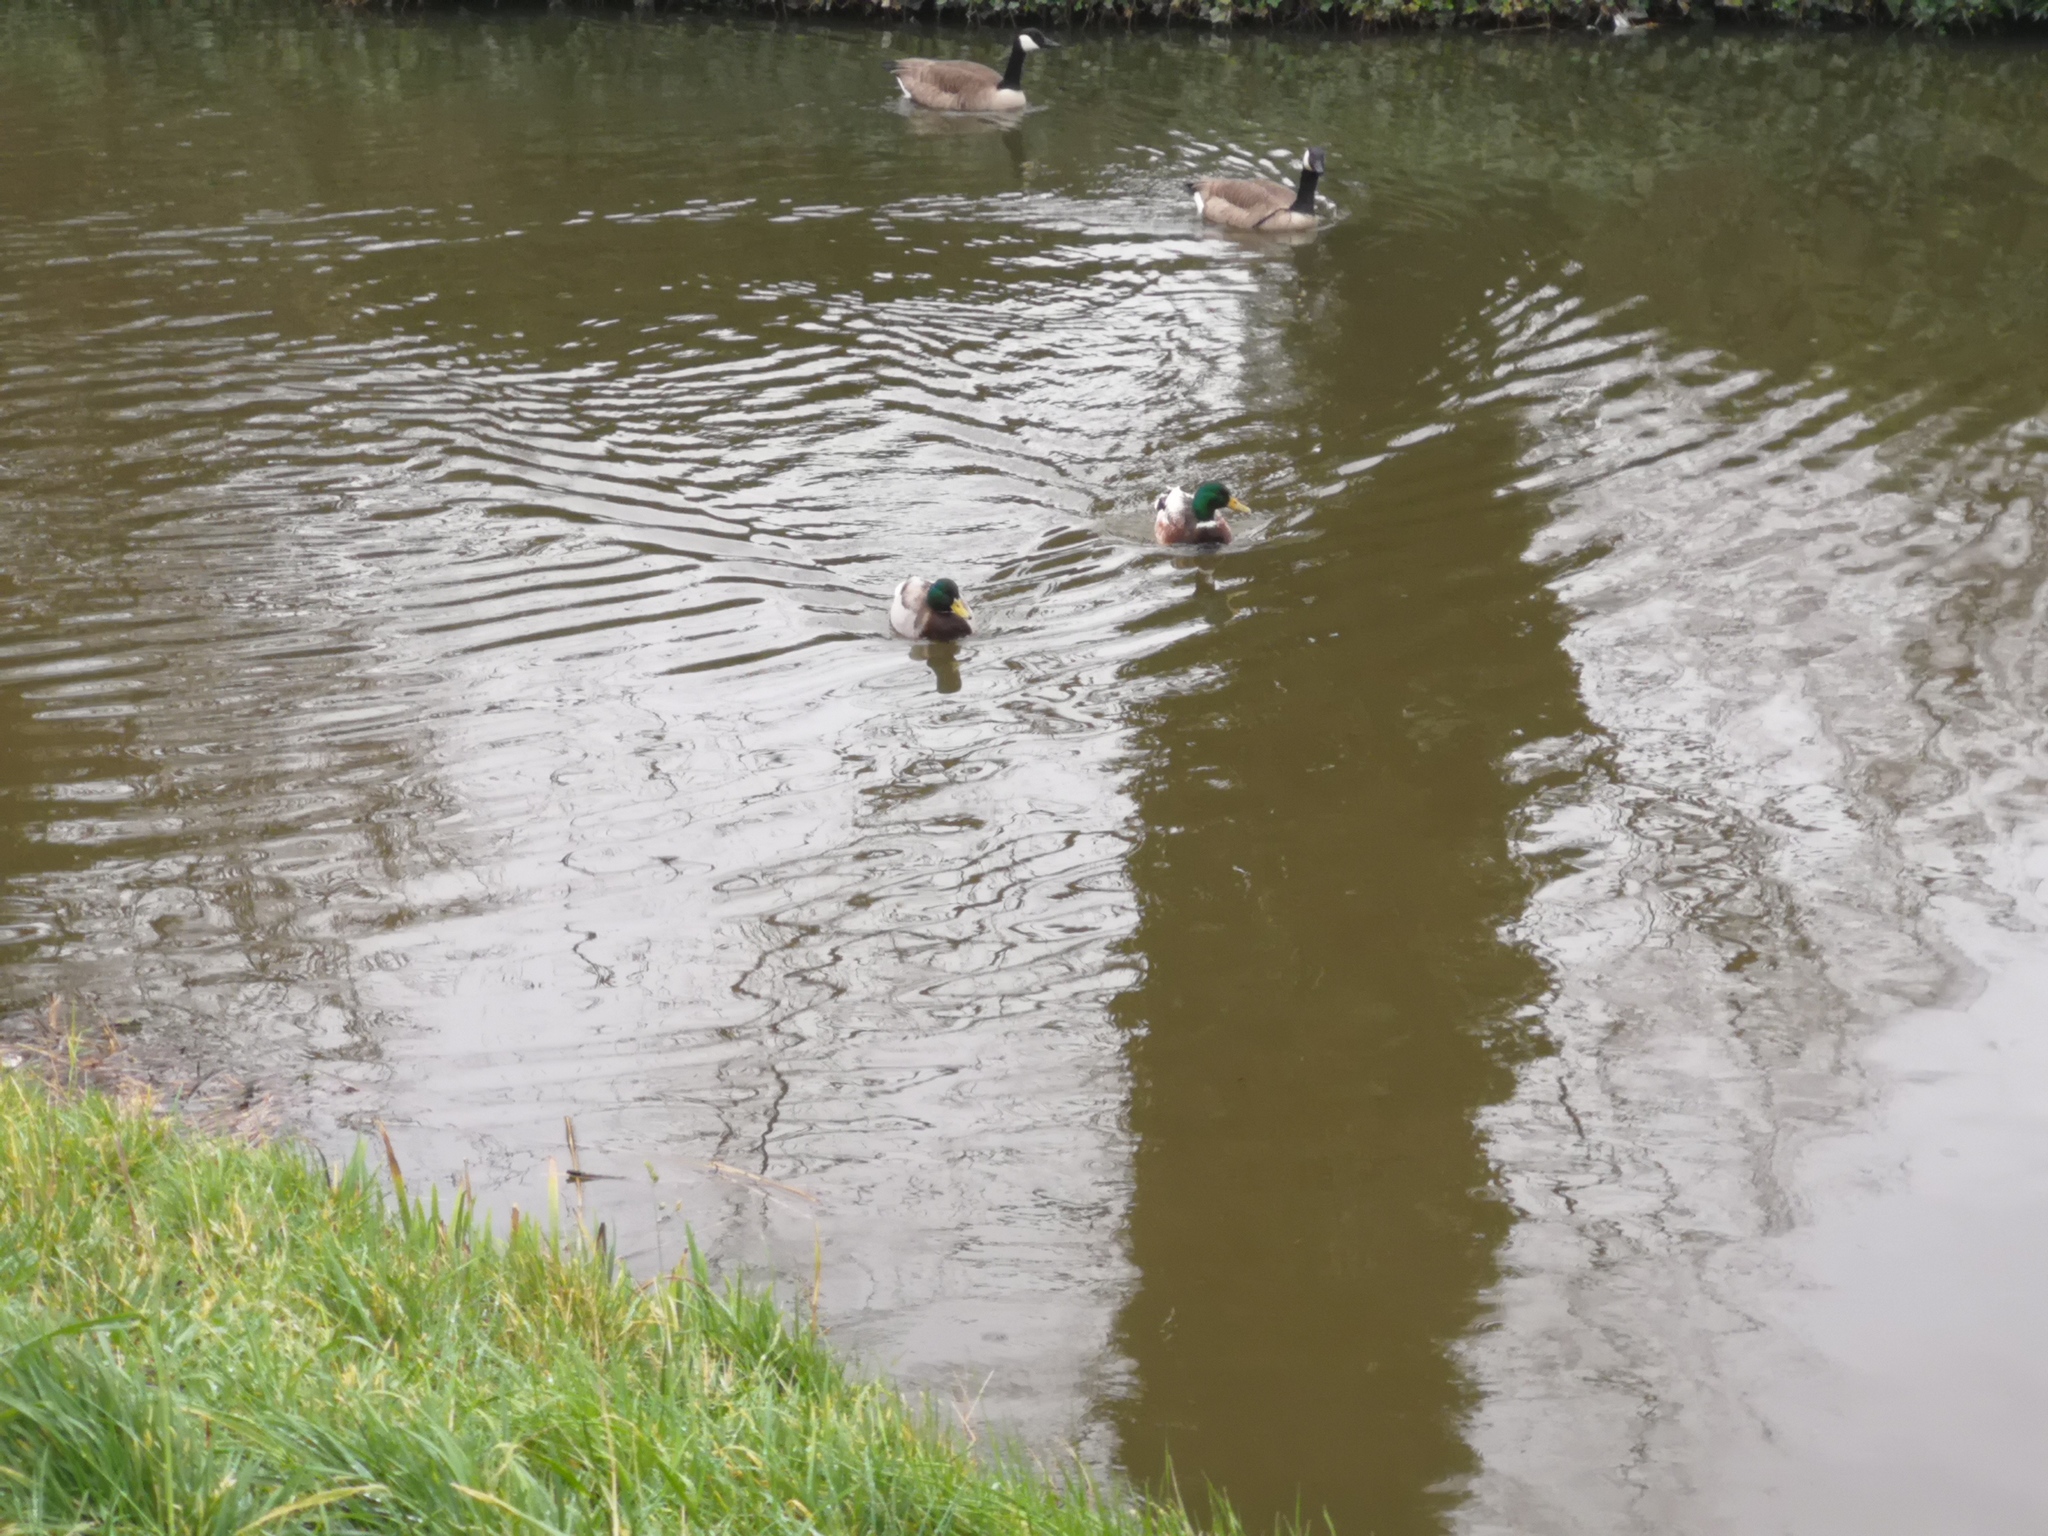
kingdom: Animalia
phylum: Chordata
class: Aves
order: Anseriformes
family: Anatidae
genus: Anas
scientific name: Anas platyrhynchos
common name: Mallard
